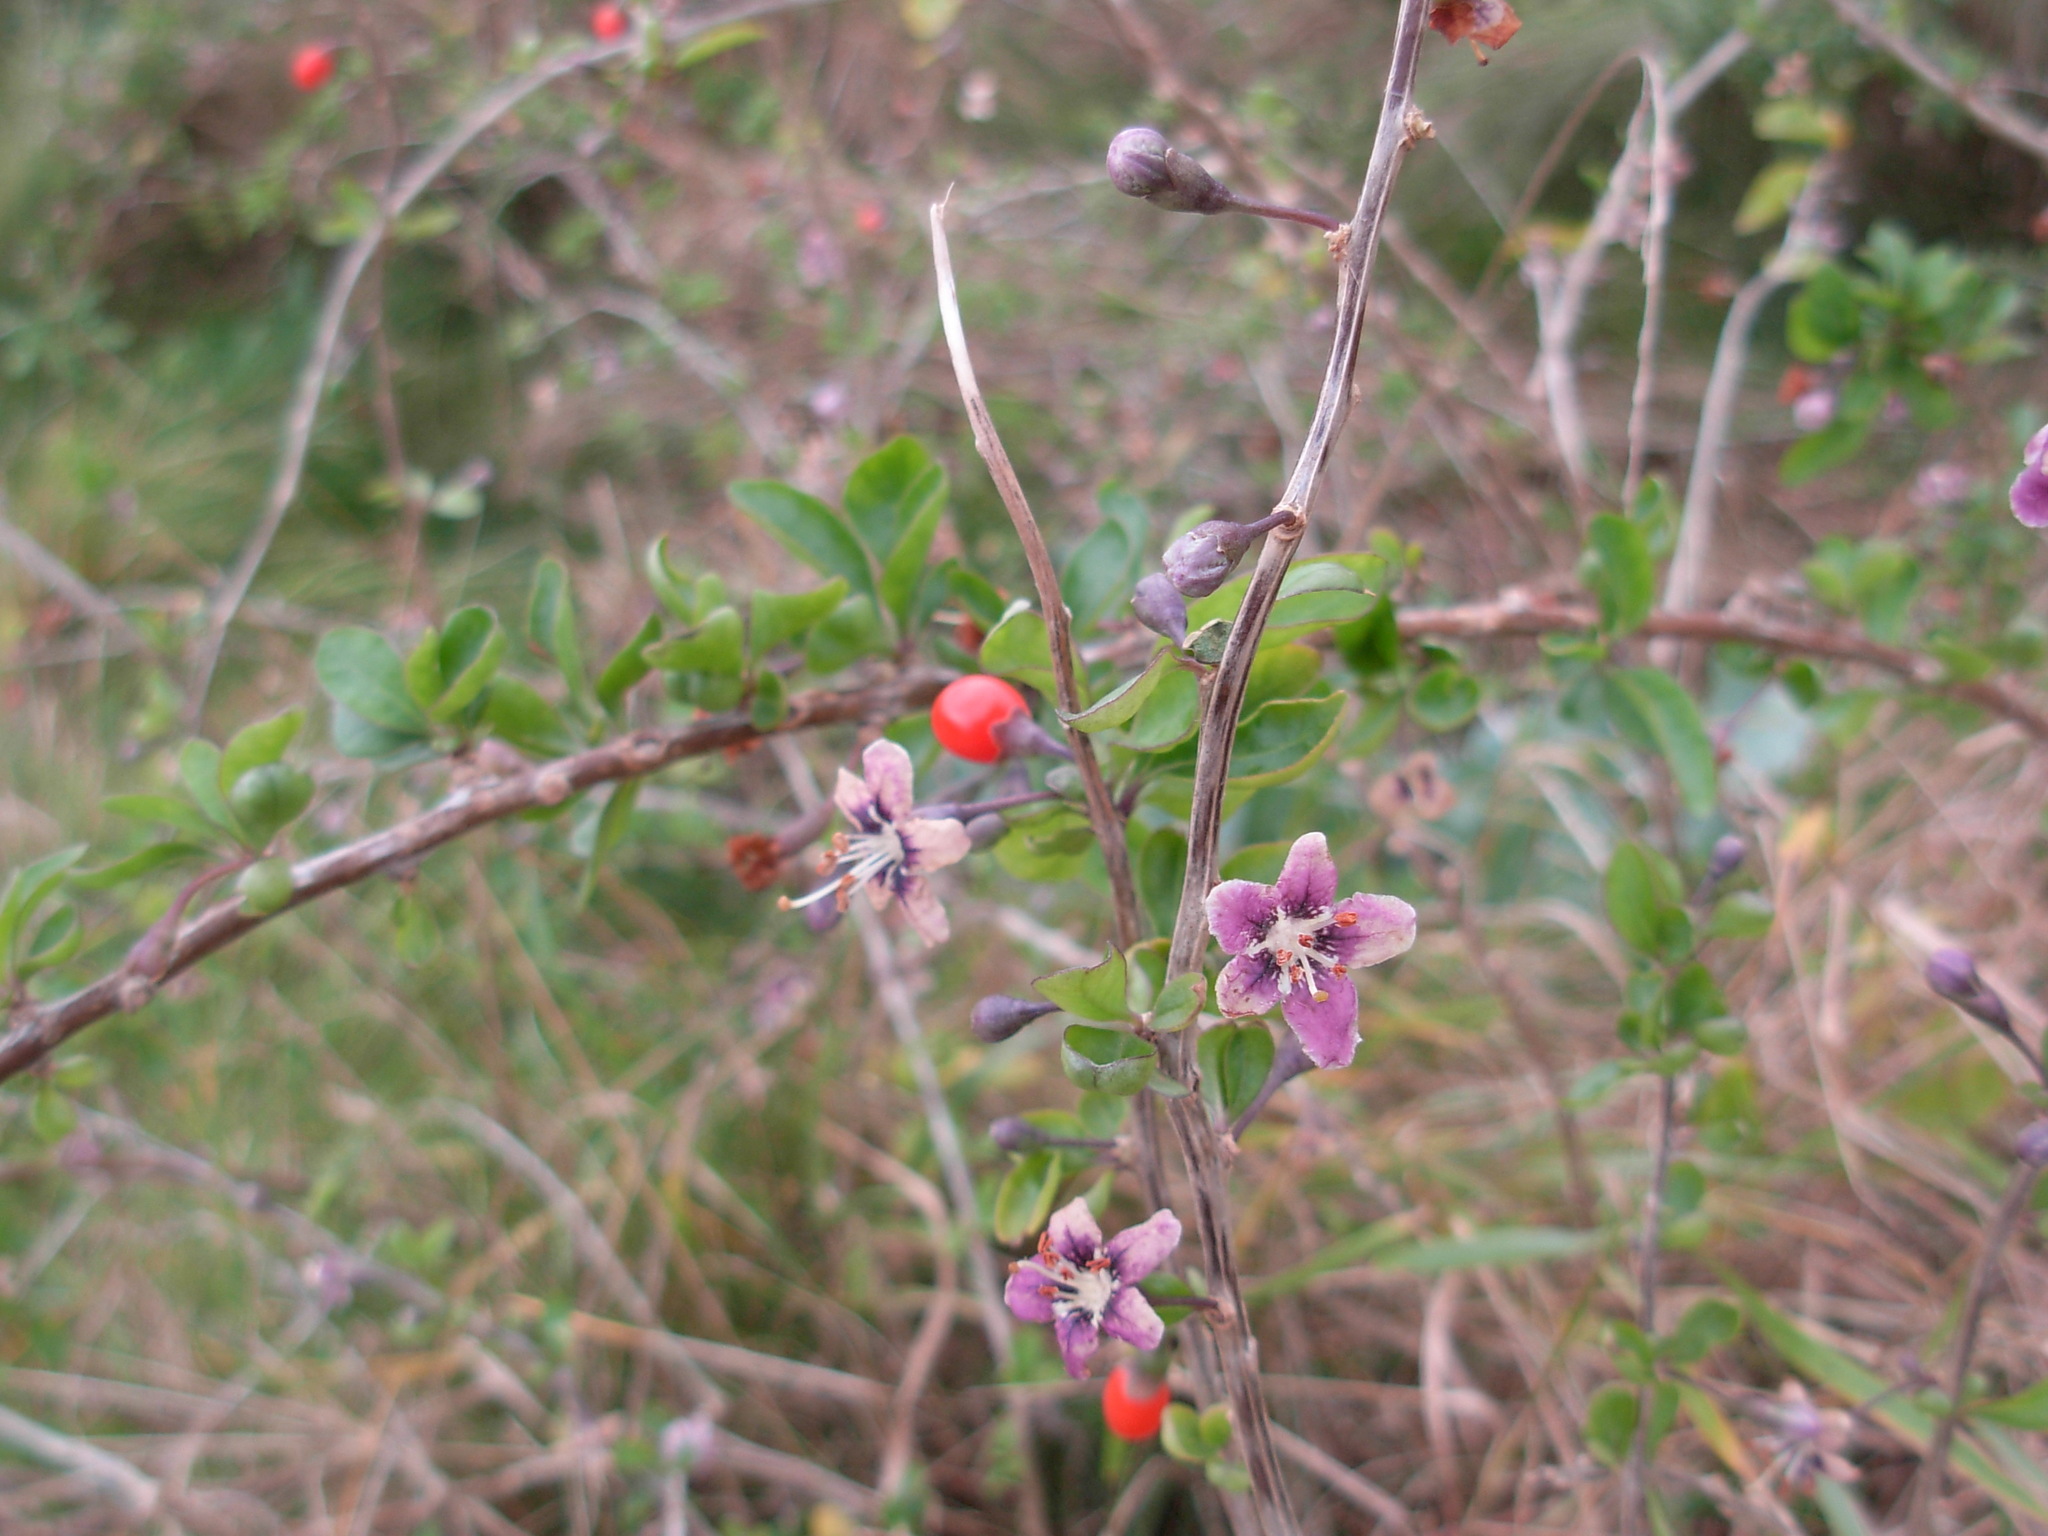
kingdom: Plantae
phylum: Tracheophyta
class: Magnoliopsida
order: Solanales
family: Solanaceae
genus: Lycium
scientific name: Lycium barbarum
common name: Duke of argyll's teaplant
